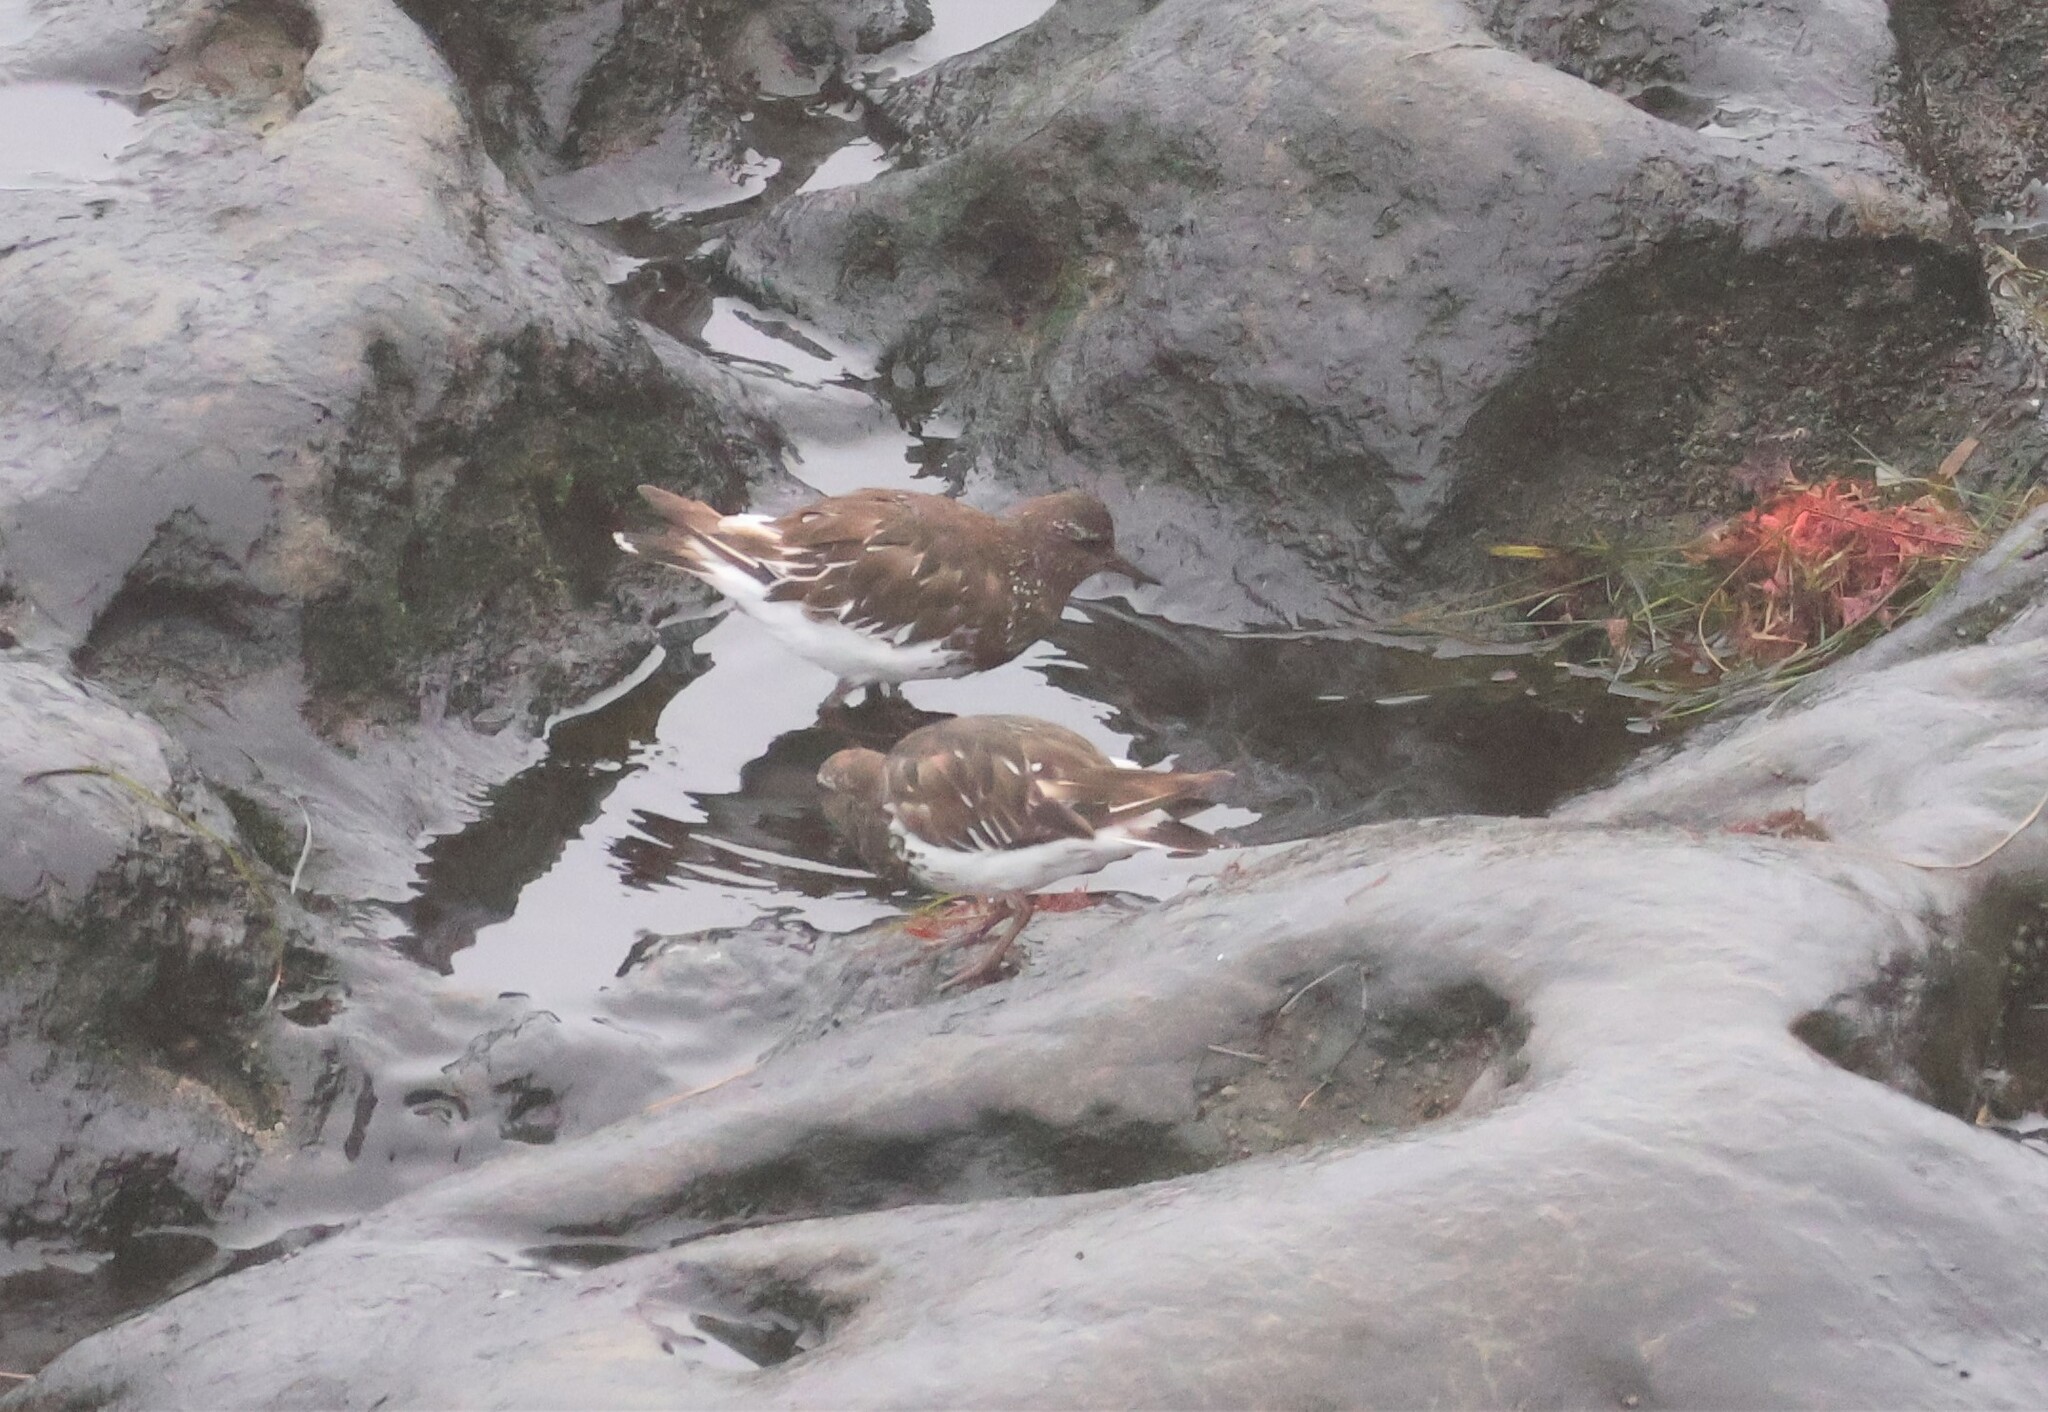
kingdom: Animalia
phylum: Chordata
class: Aves
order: Charadriiformes
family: Scolopacidae
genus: Arenaria
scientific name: Arenaria melanocephala
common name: Black turnstone
